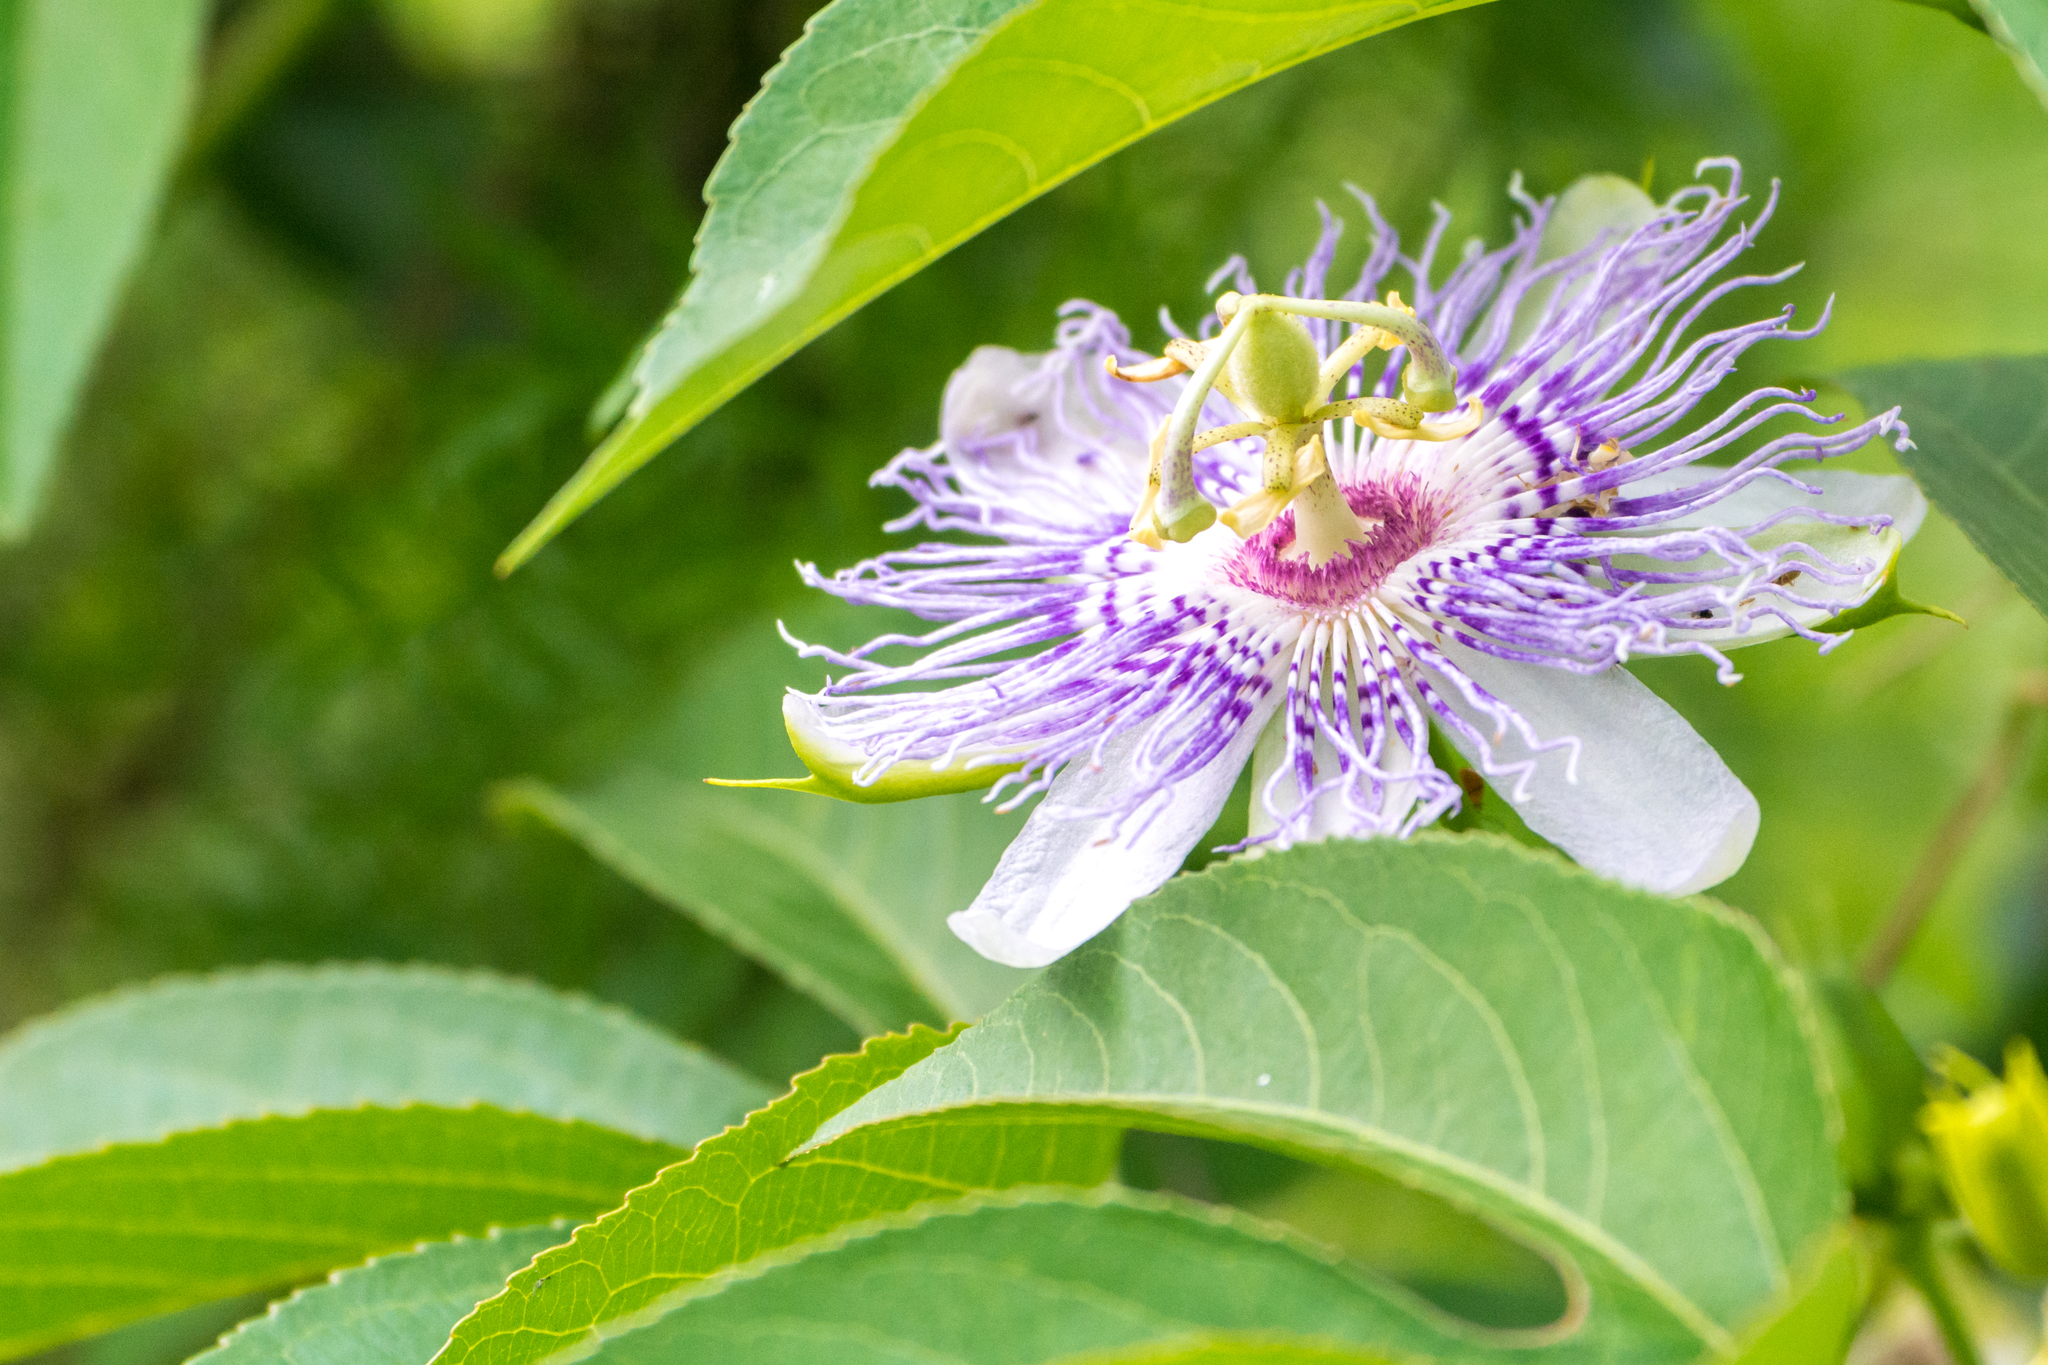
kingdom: Plantae
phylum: Tracheophyta
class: Magnoliopsida
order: Malpighiales
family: Passifloraceae
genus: Passiflora
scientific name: Passiflora incarnata
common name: Apricot-vine
